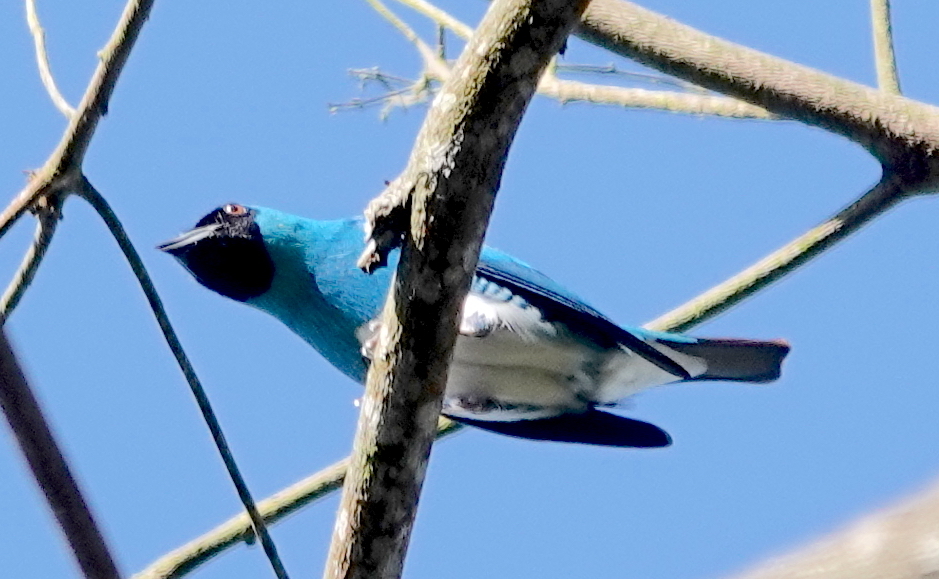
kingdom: Animalia
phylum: Chordata
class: Aves
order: Passeriformes
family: Thraupidae
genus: Tersina
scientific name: Tersina viridis
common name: Swallow tanager
